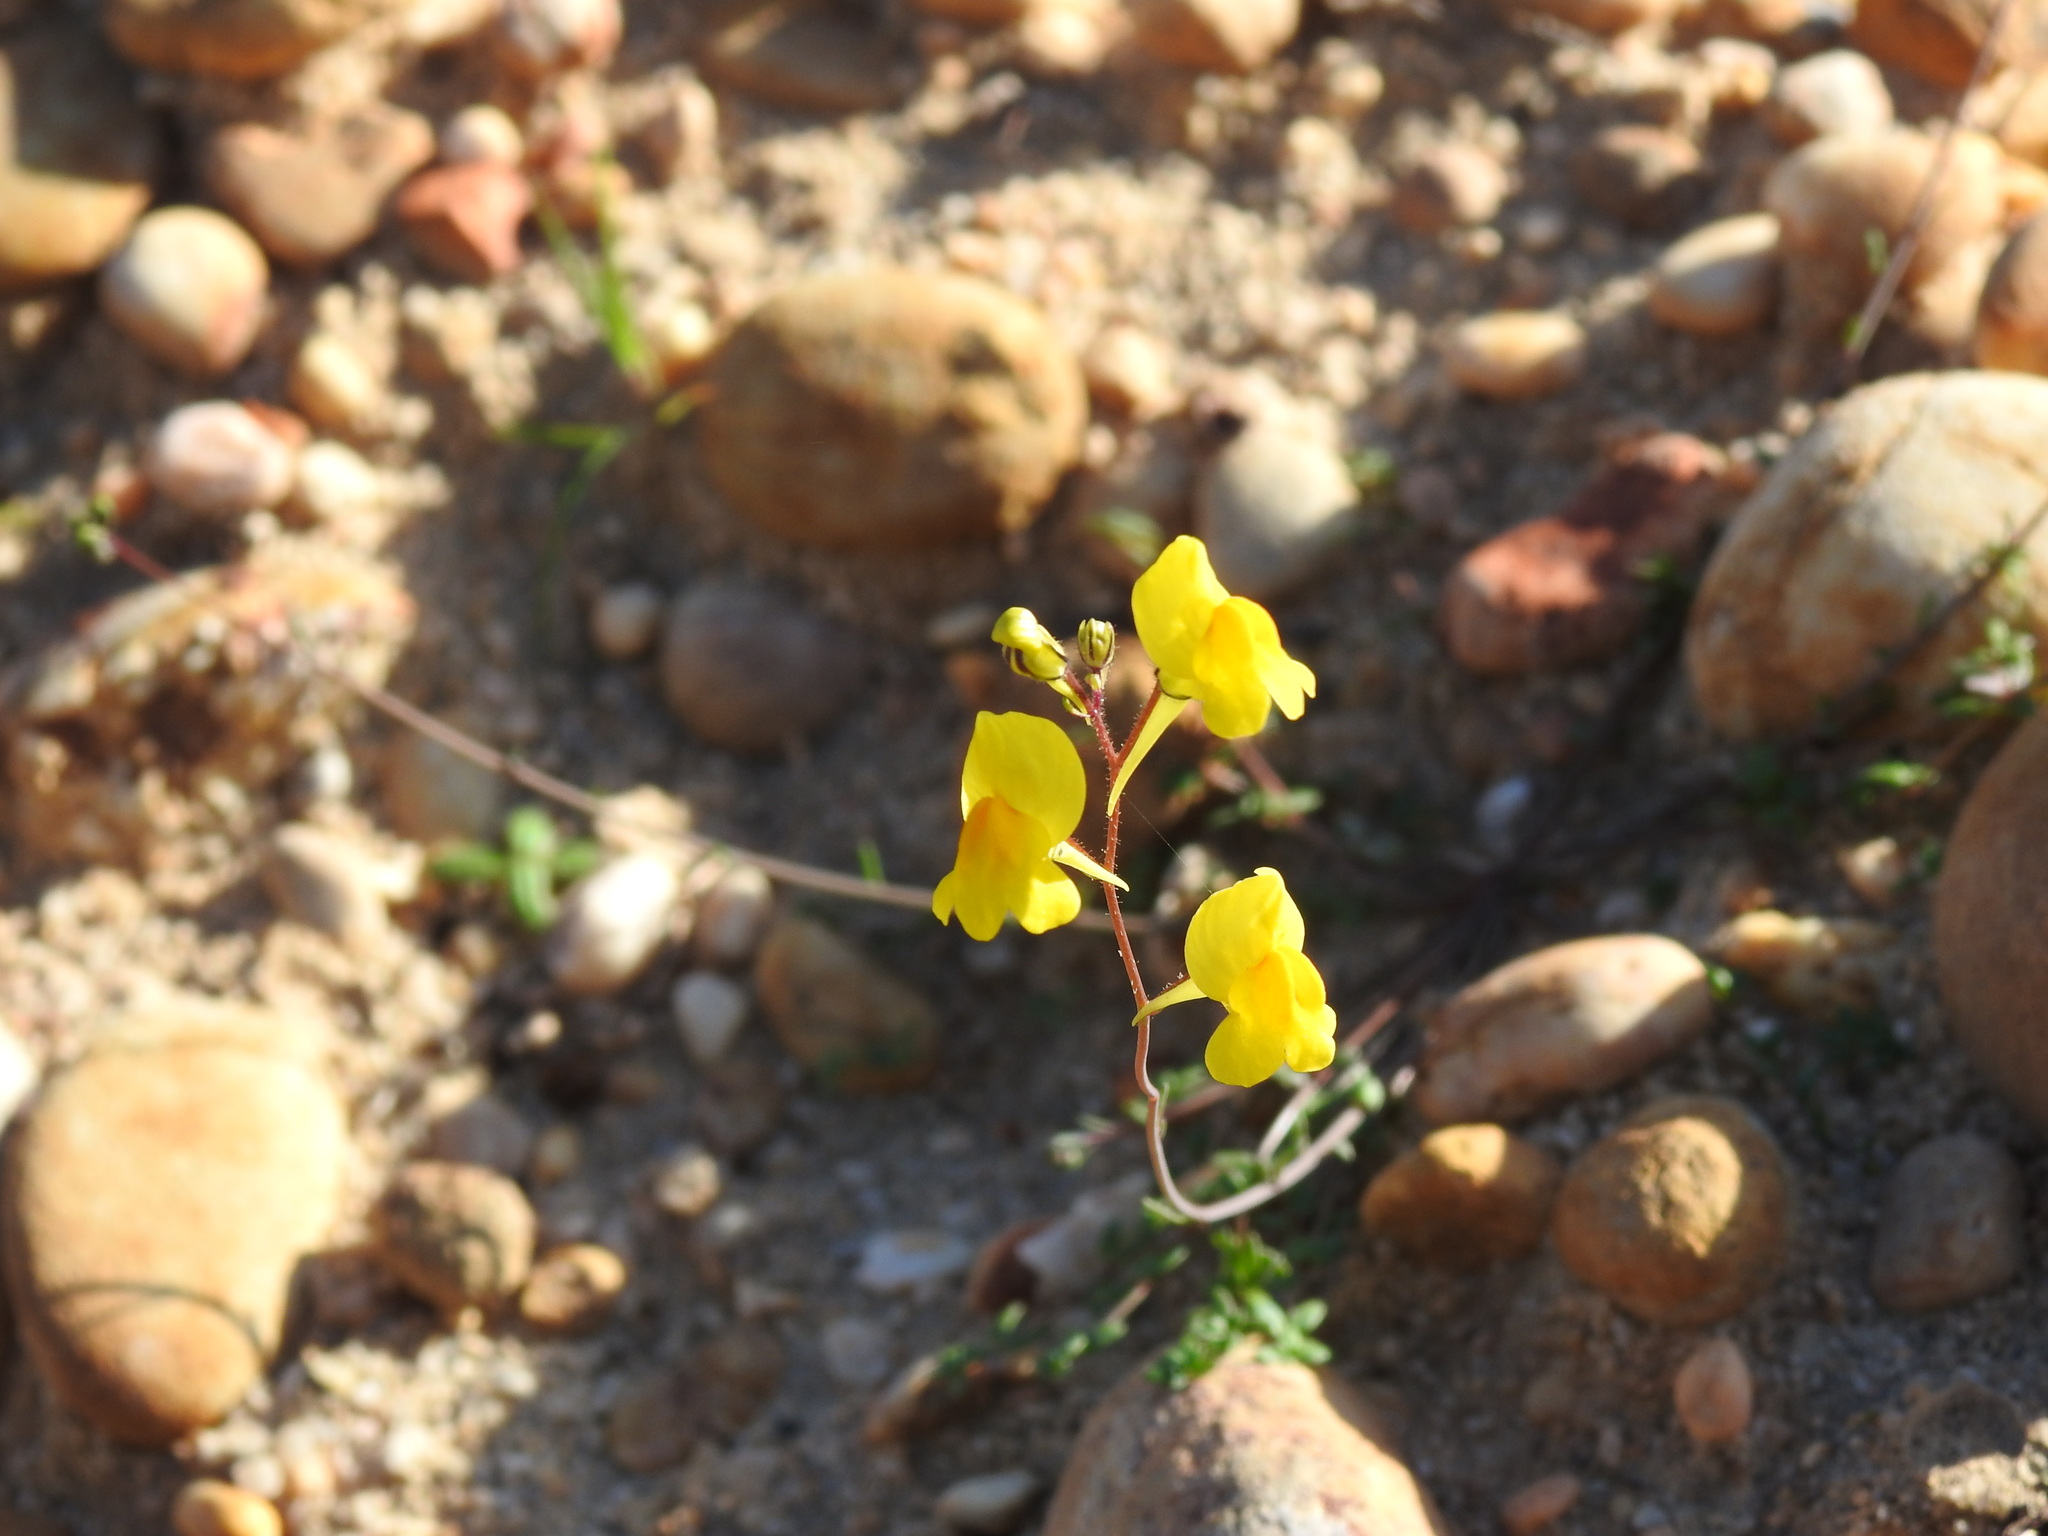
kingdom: Plantae
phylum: Tracheophyta
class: Magnoliopsida
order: Lamiales
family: Plantaginaceae
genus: Linaria
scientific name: Linaria spartea
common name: Ballast toadflax
